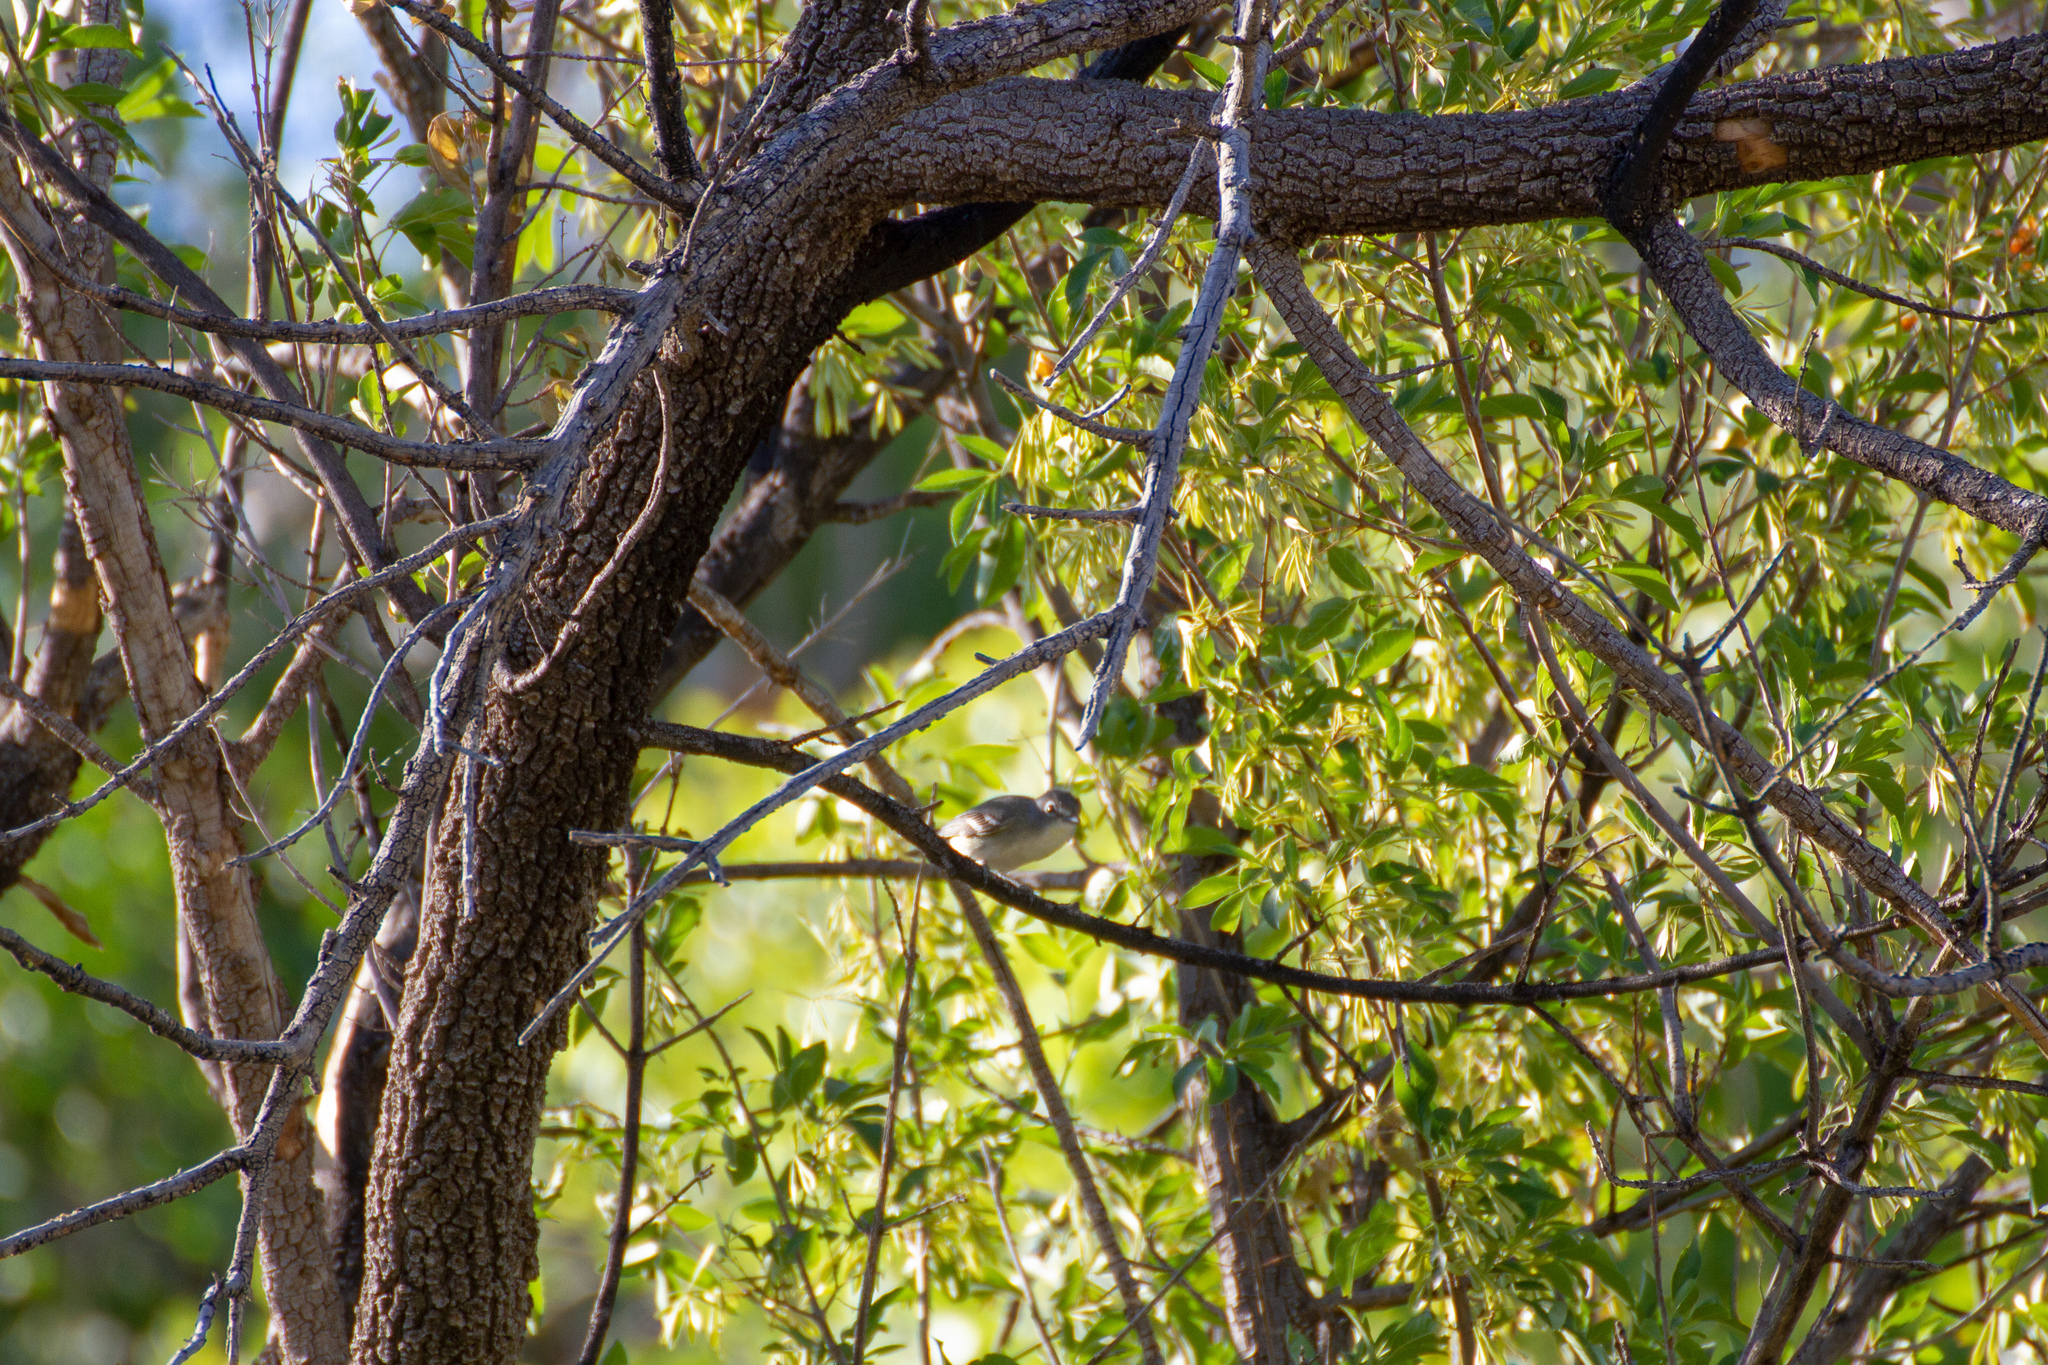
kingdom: Animalia
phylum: Chordata
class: Aves
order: Passeriformes
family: Vireonidae
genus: Vireo
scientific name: Vireo plumbeus
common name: Plumbeous vireo
